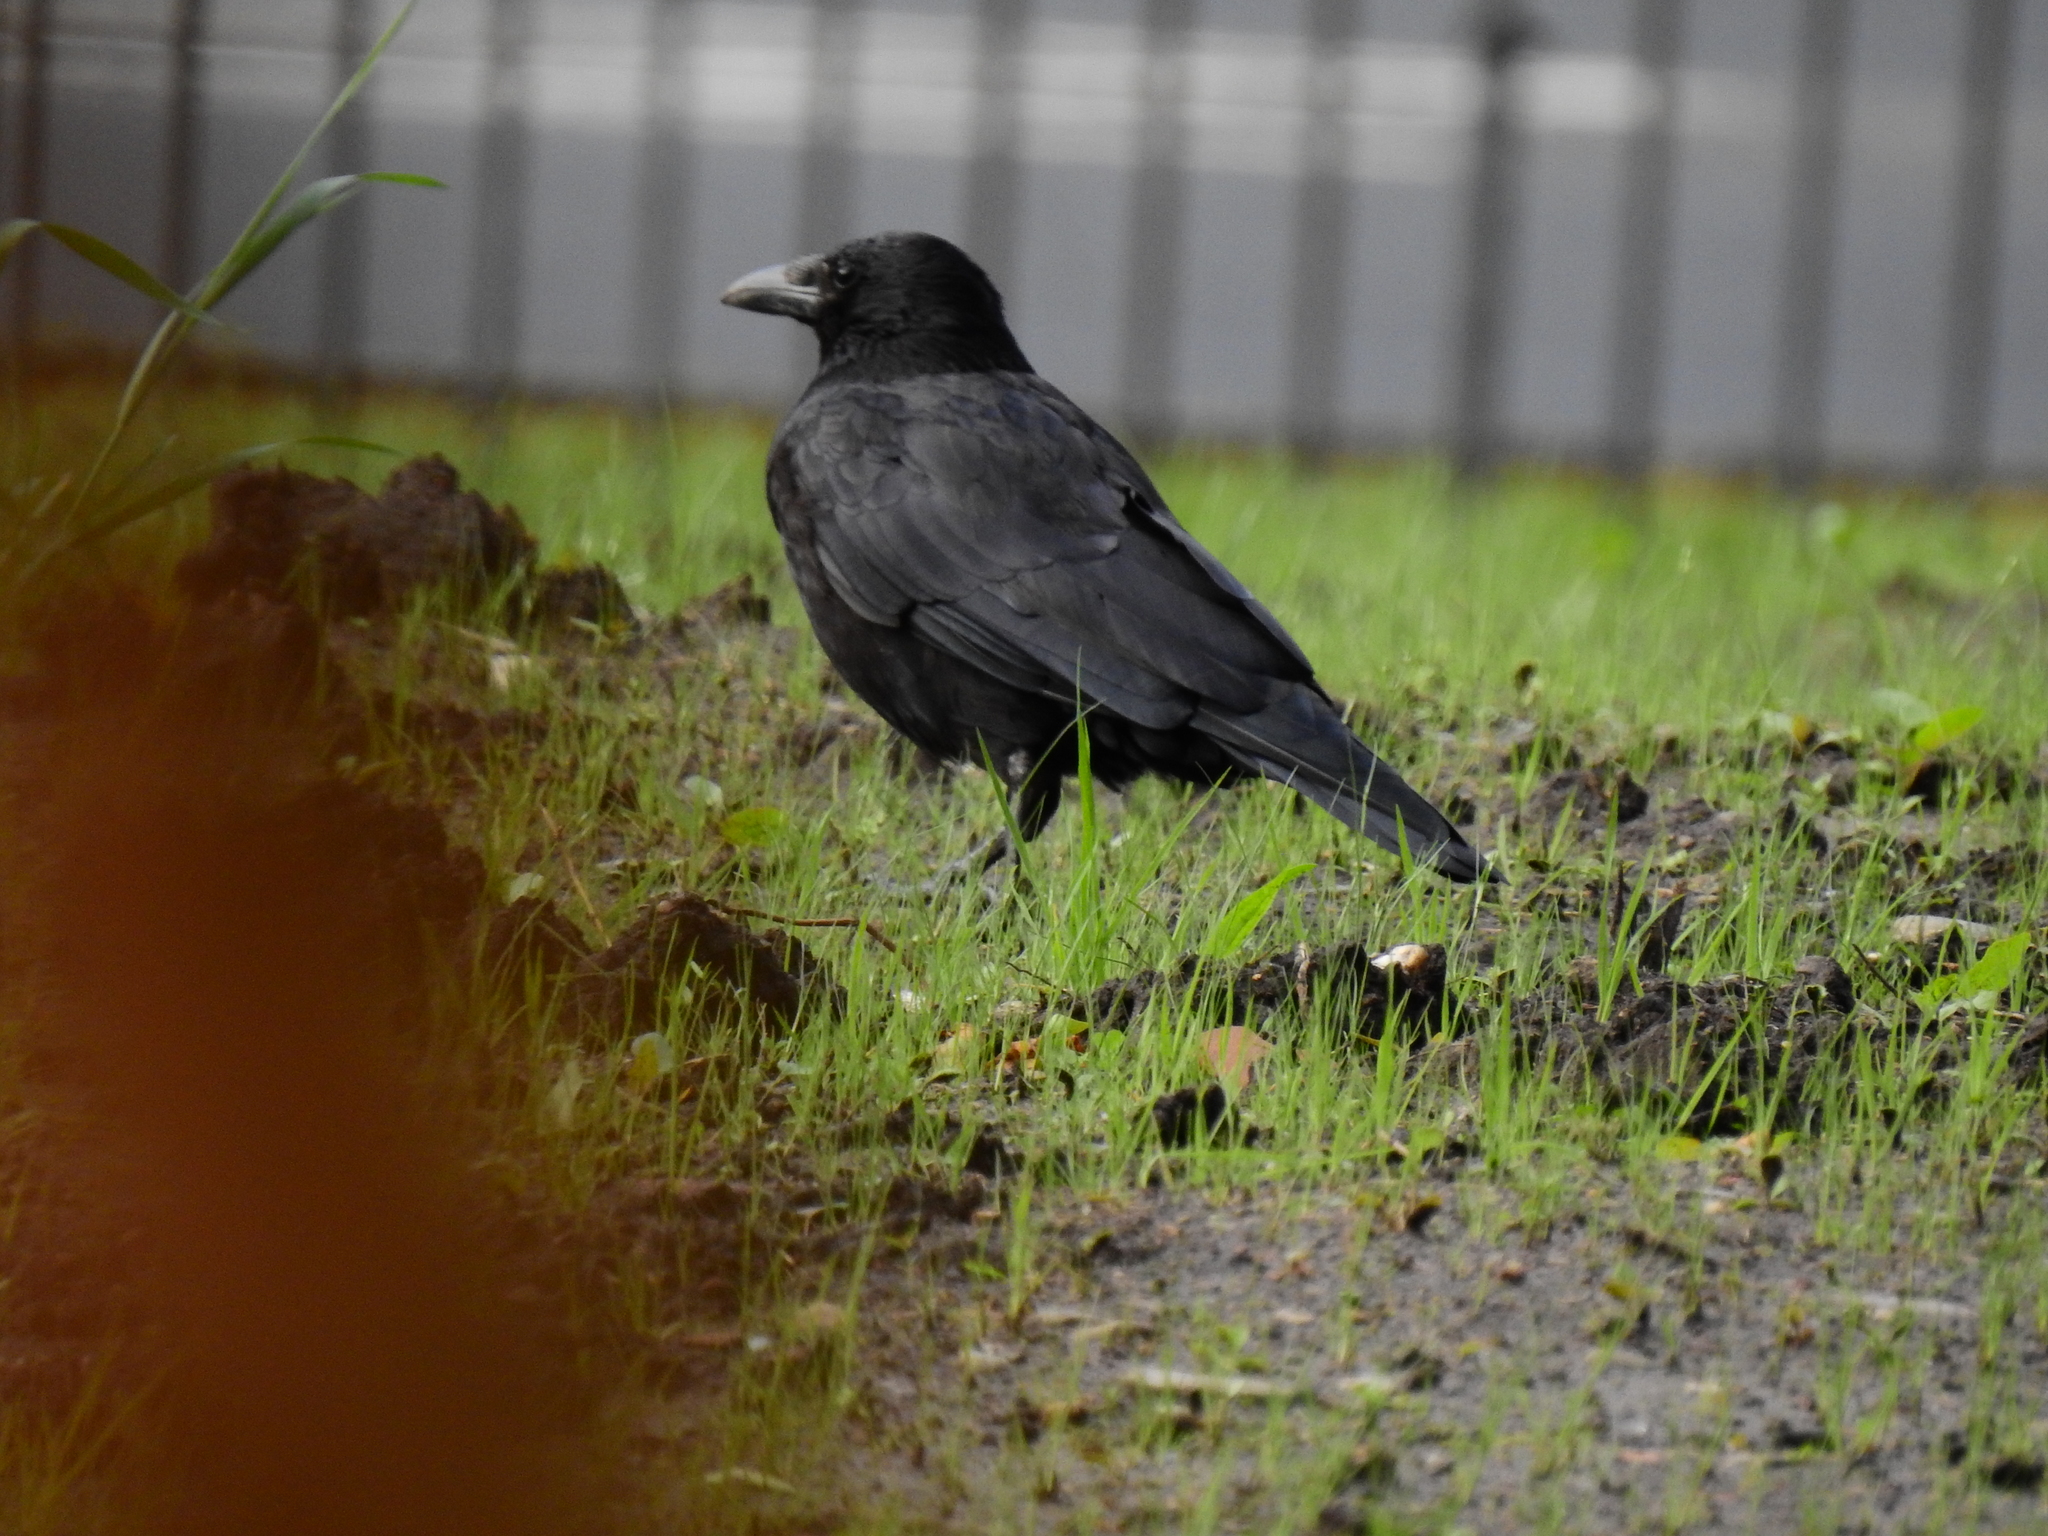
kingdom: Animalia
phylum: Chordata
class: Aves
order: Passeriformes
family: Corvidae
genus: Corvus
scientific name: Corvus corone
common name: Carrion crow
